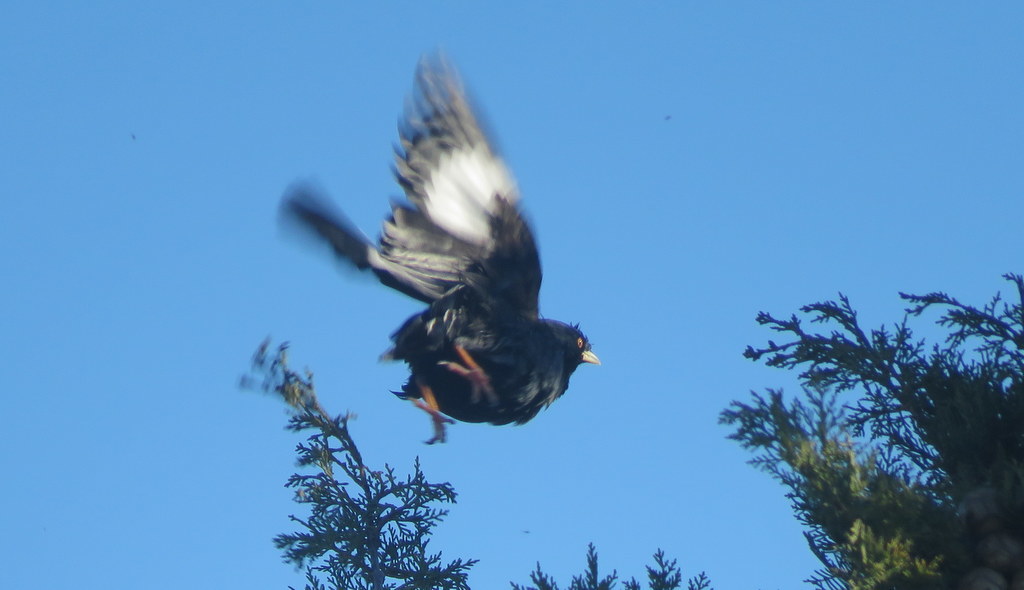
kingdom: Animalia
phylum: Chordata
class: Aves
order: Passeriformes
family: Sturnidae
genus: Acridotheres
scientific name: Acridotheres cristatellus
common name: Crested myna
